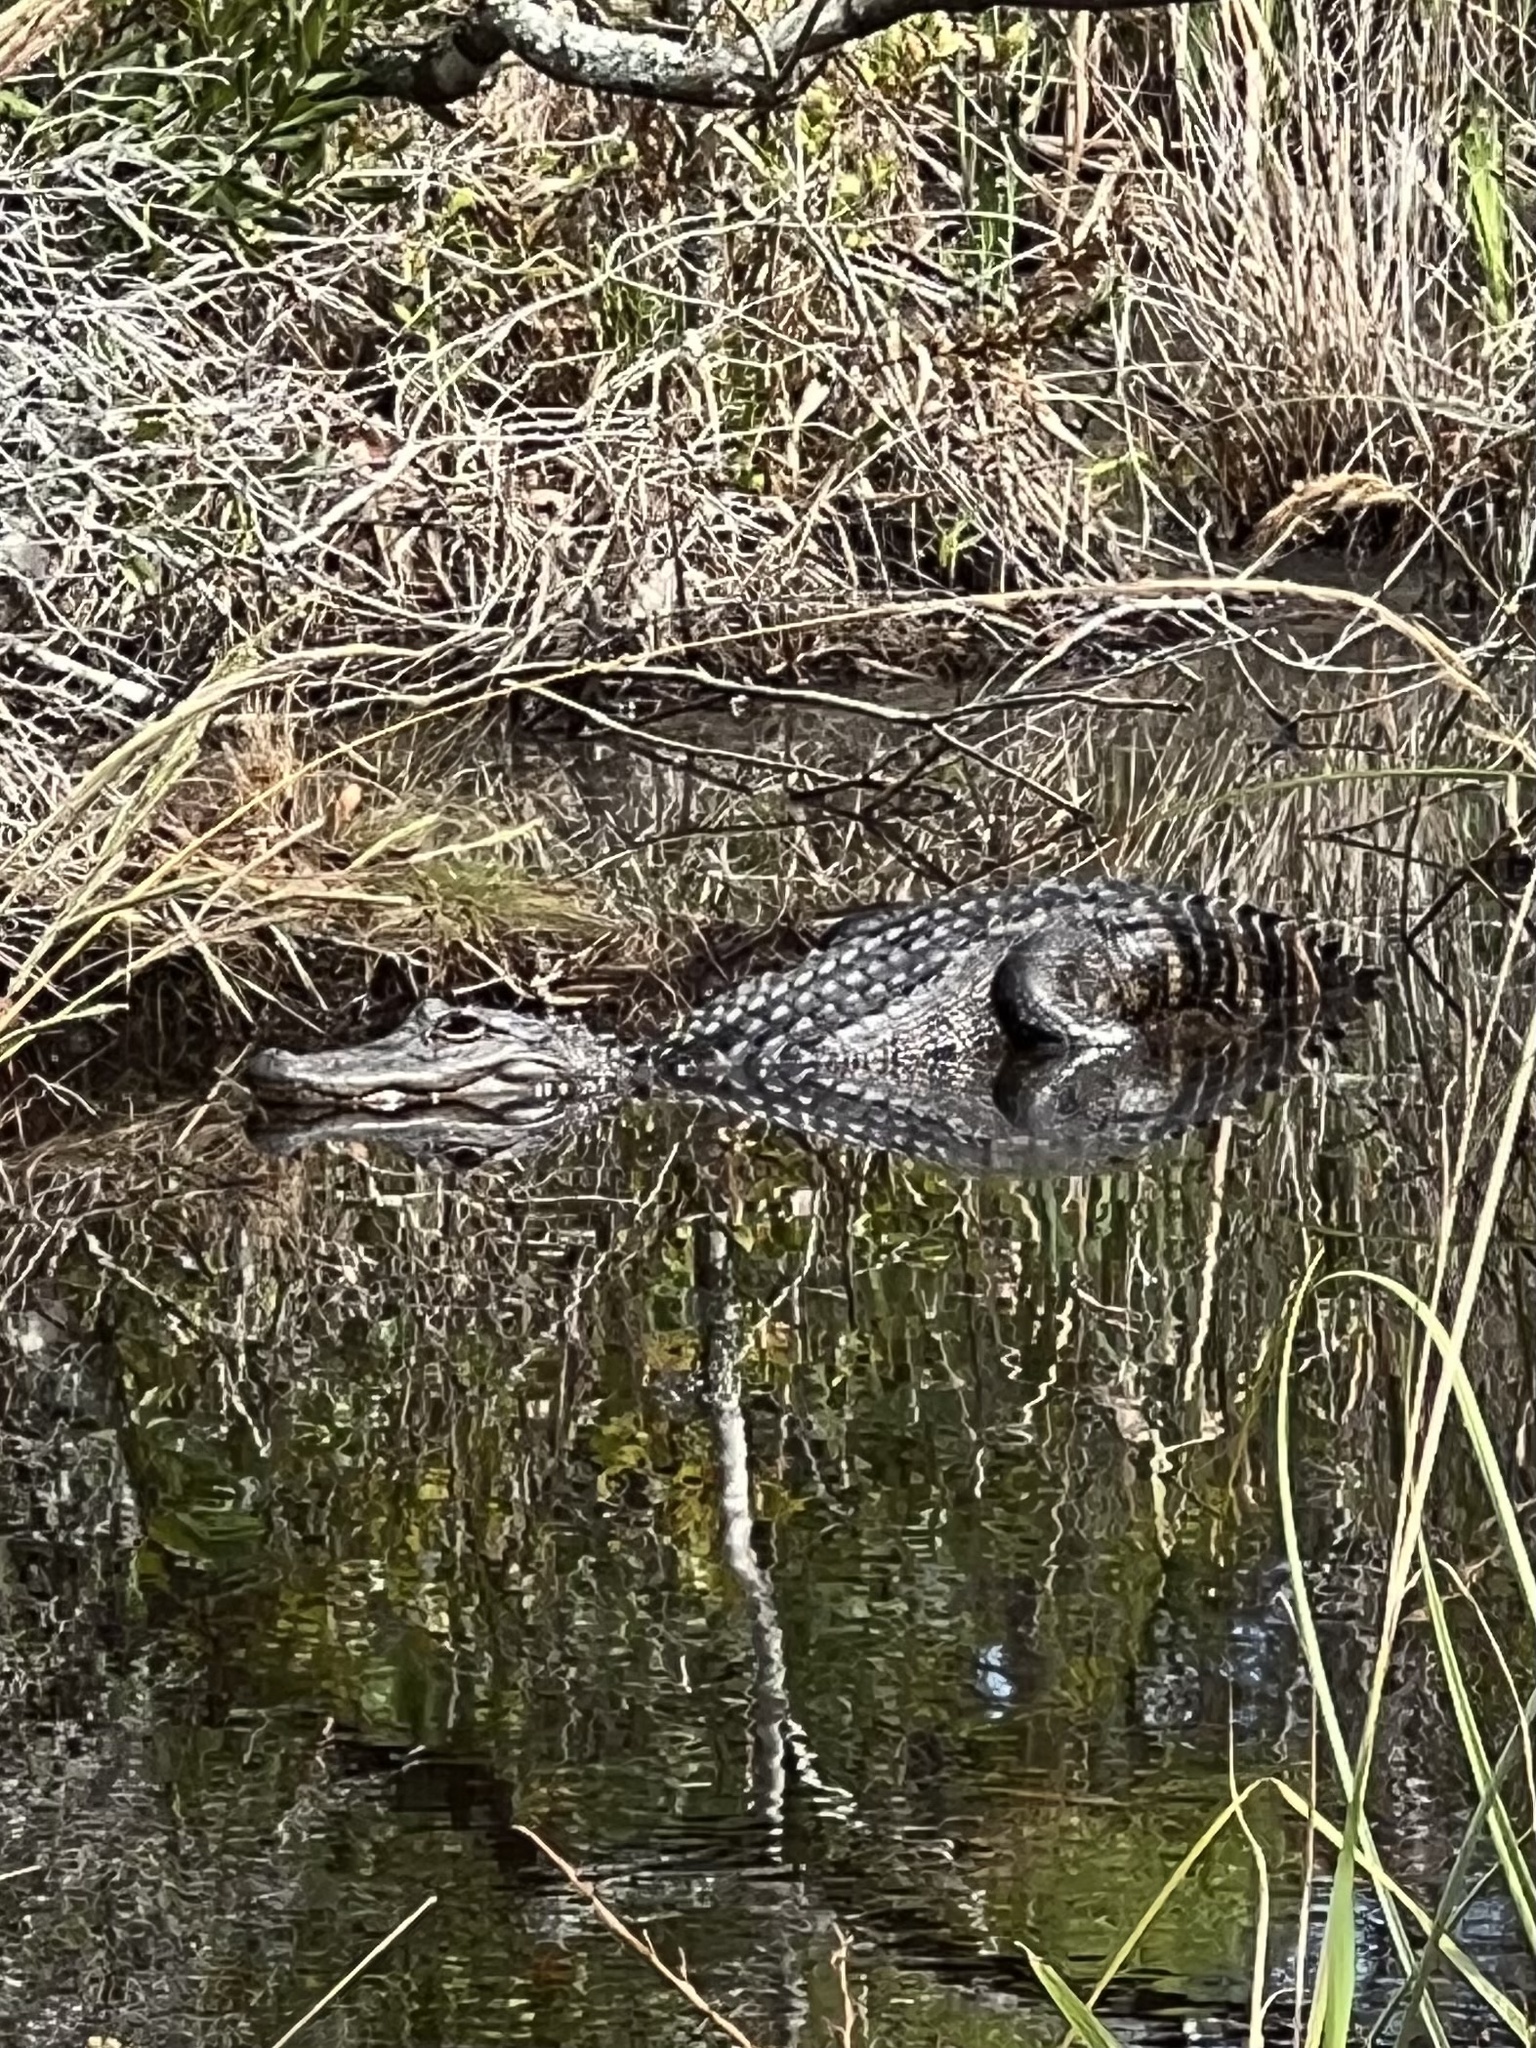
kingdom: Animalia
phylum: Chordata
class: Crocodylia
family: Alligatoridae
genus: Alligator
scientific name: Alligator mississippiensis
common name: American alligator
